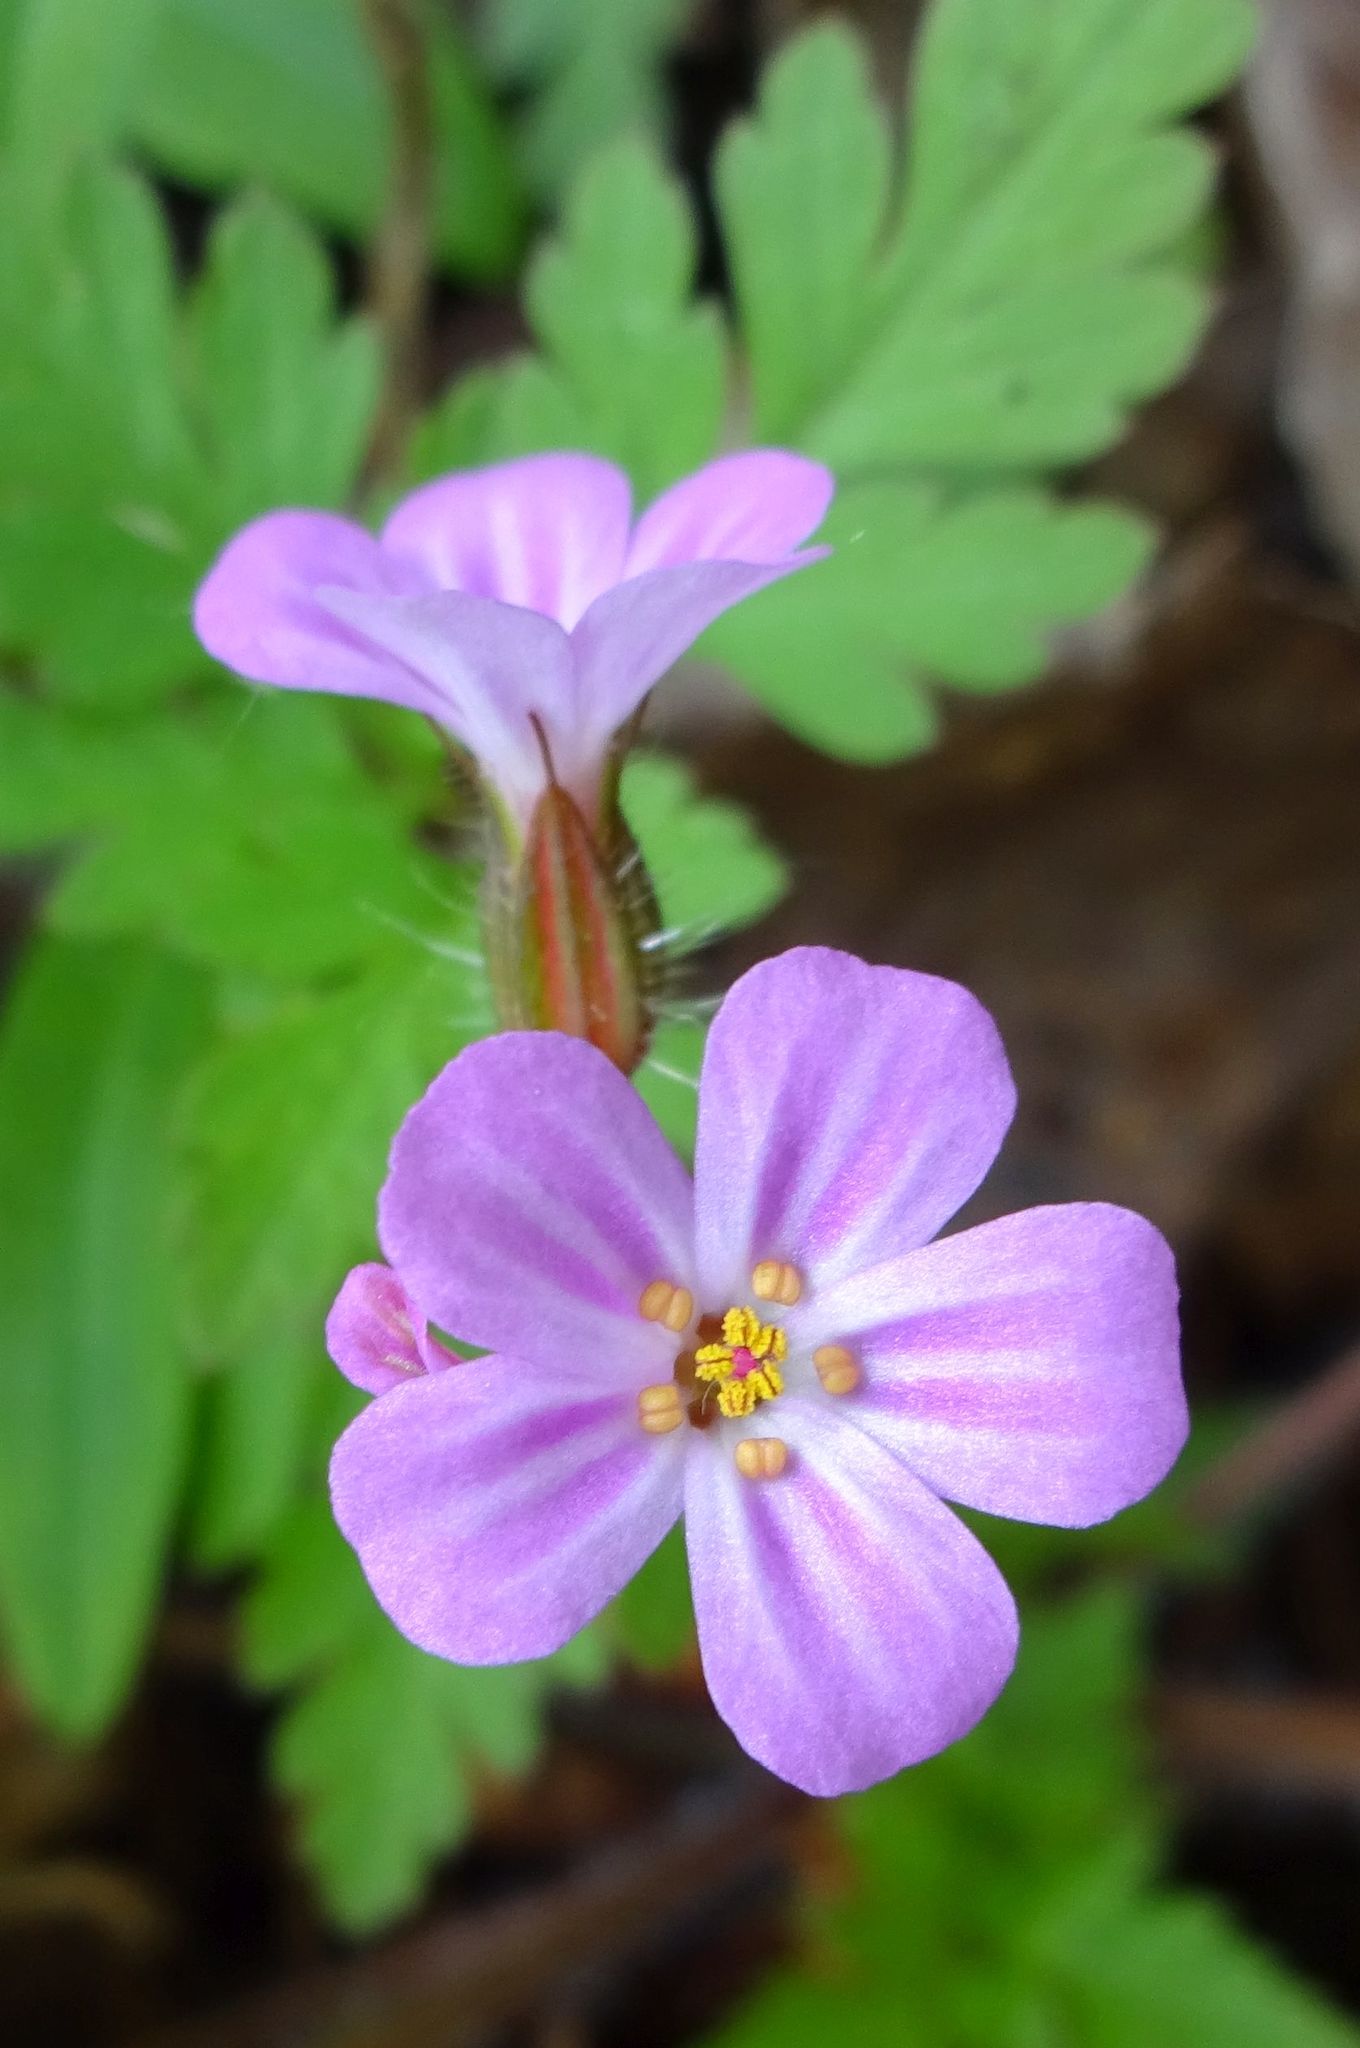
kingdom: Plantae
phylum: Tracheophyta
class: Magnoliopsida
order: Geraniales
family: Geraniaceae
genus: Geranium
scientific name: Geranium robertianum
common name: Herb-robert
